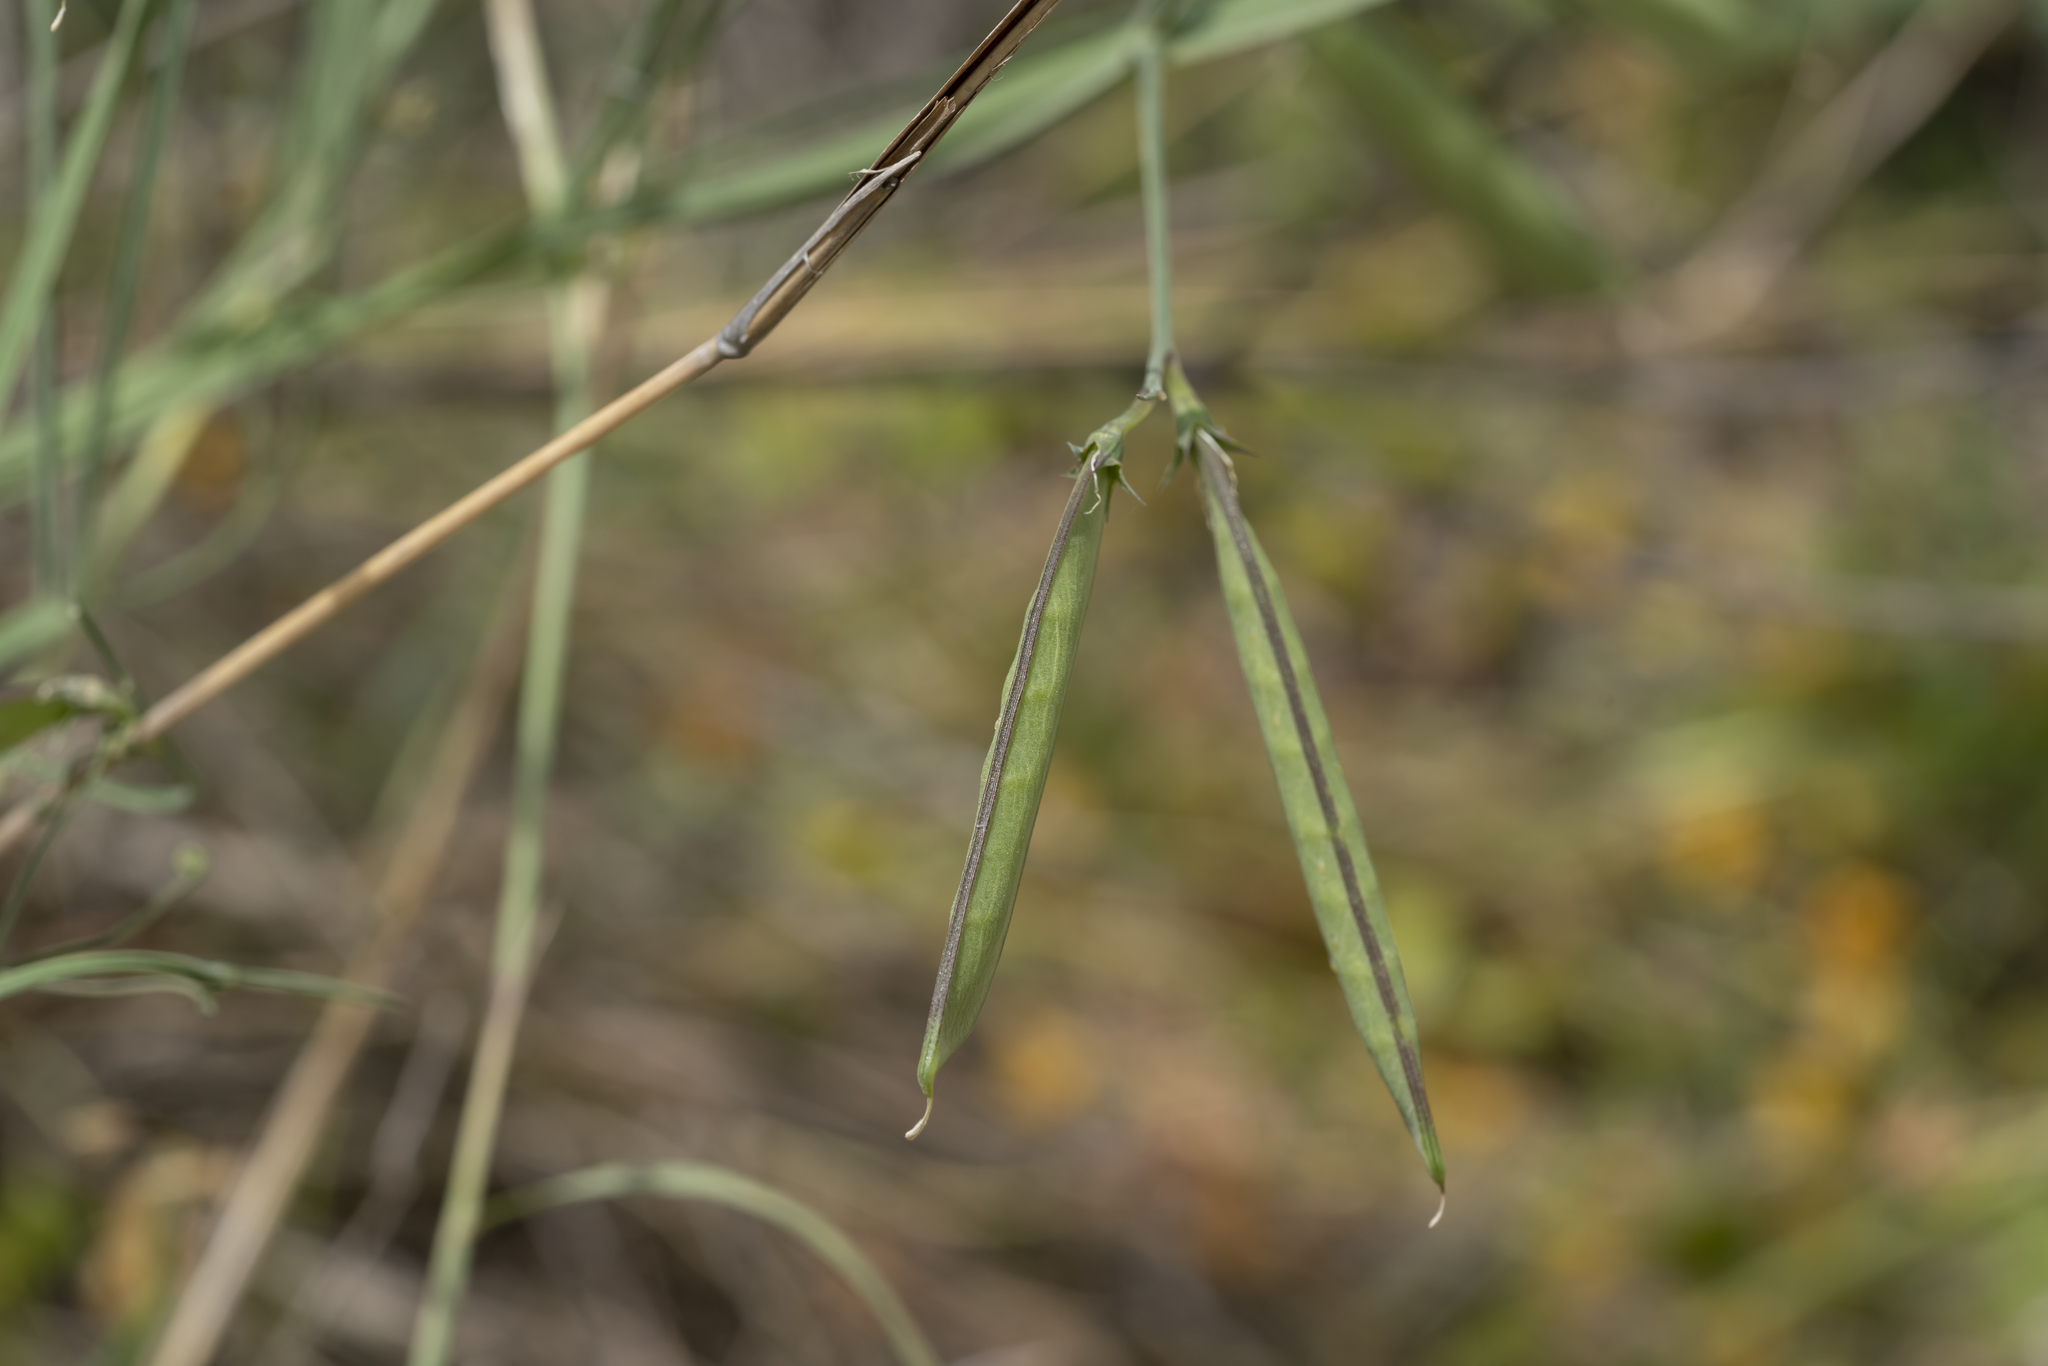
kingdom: Plantae
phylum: Tracheophyta
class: Magnoliopsida
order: Fabales
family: Fabaceae
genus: Lathyrus
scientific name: Lathyrus annuus
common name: Fodder pea
